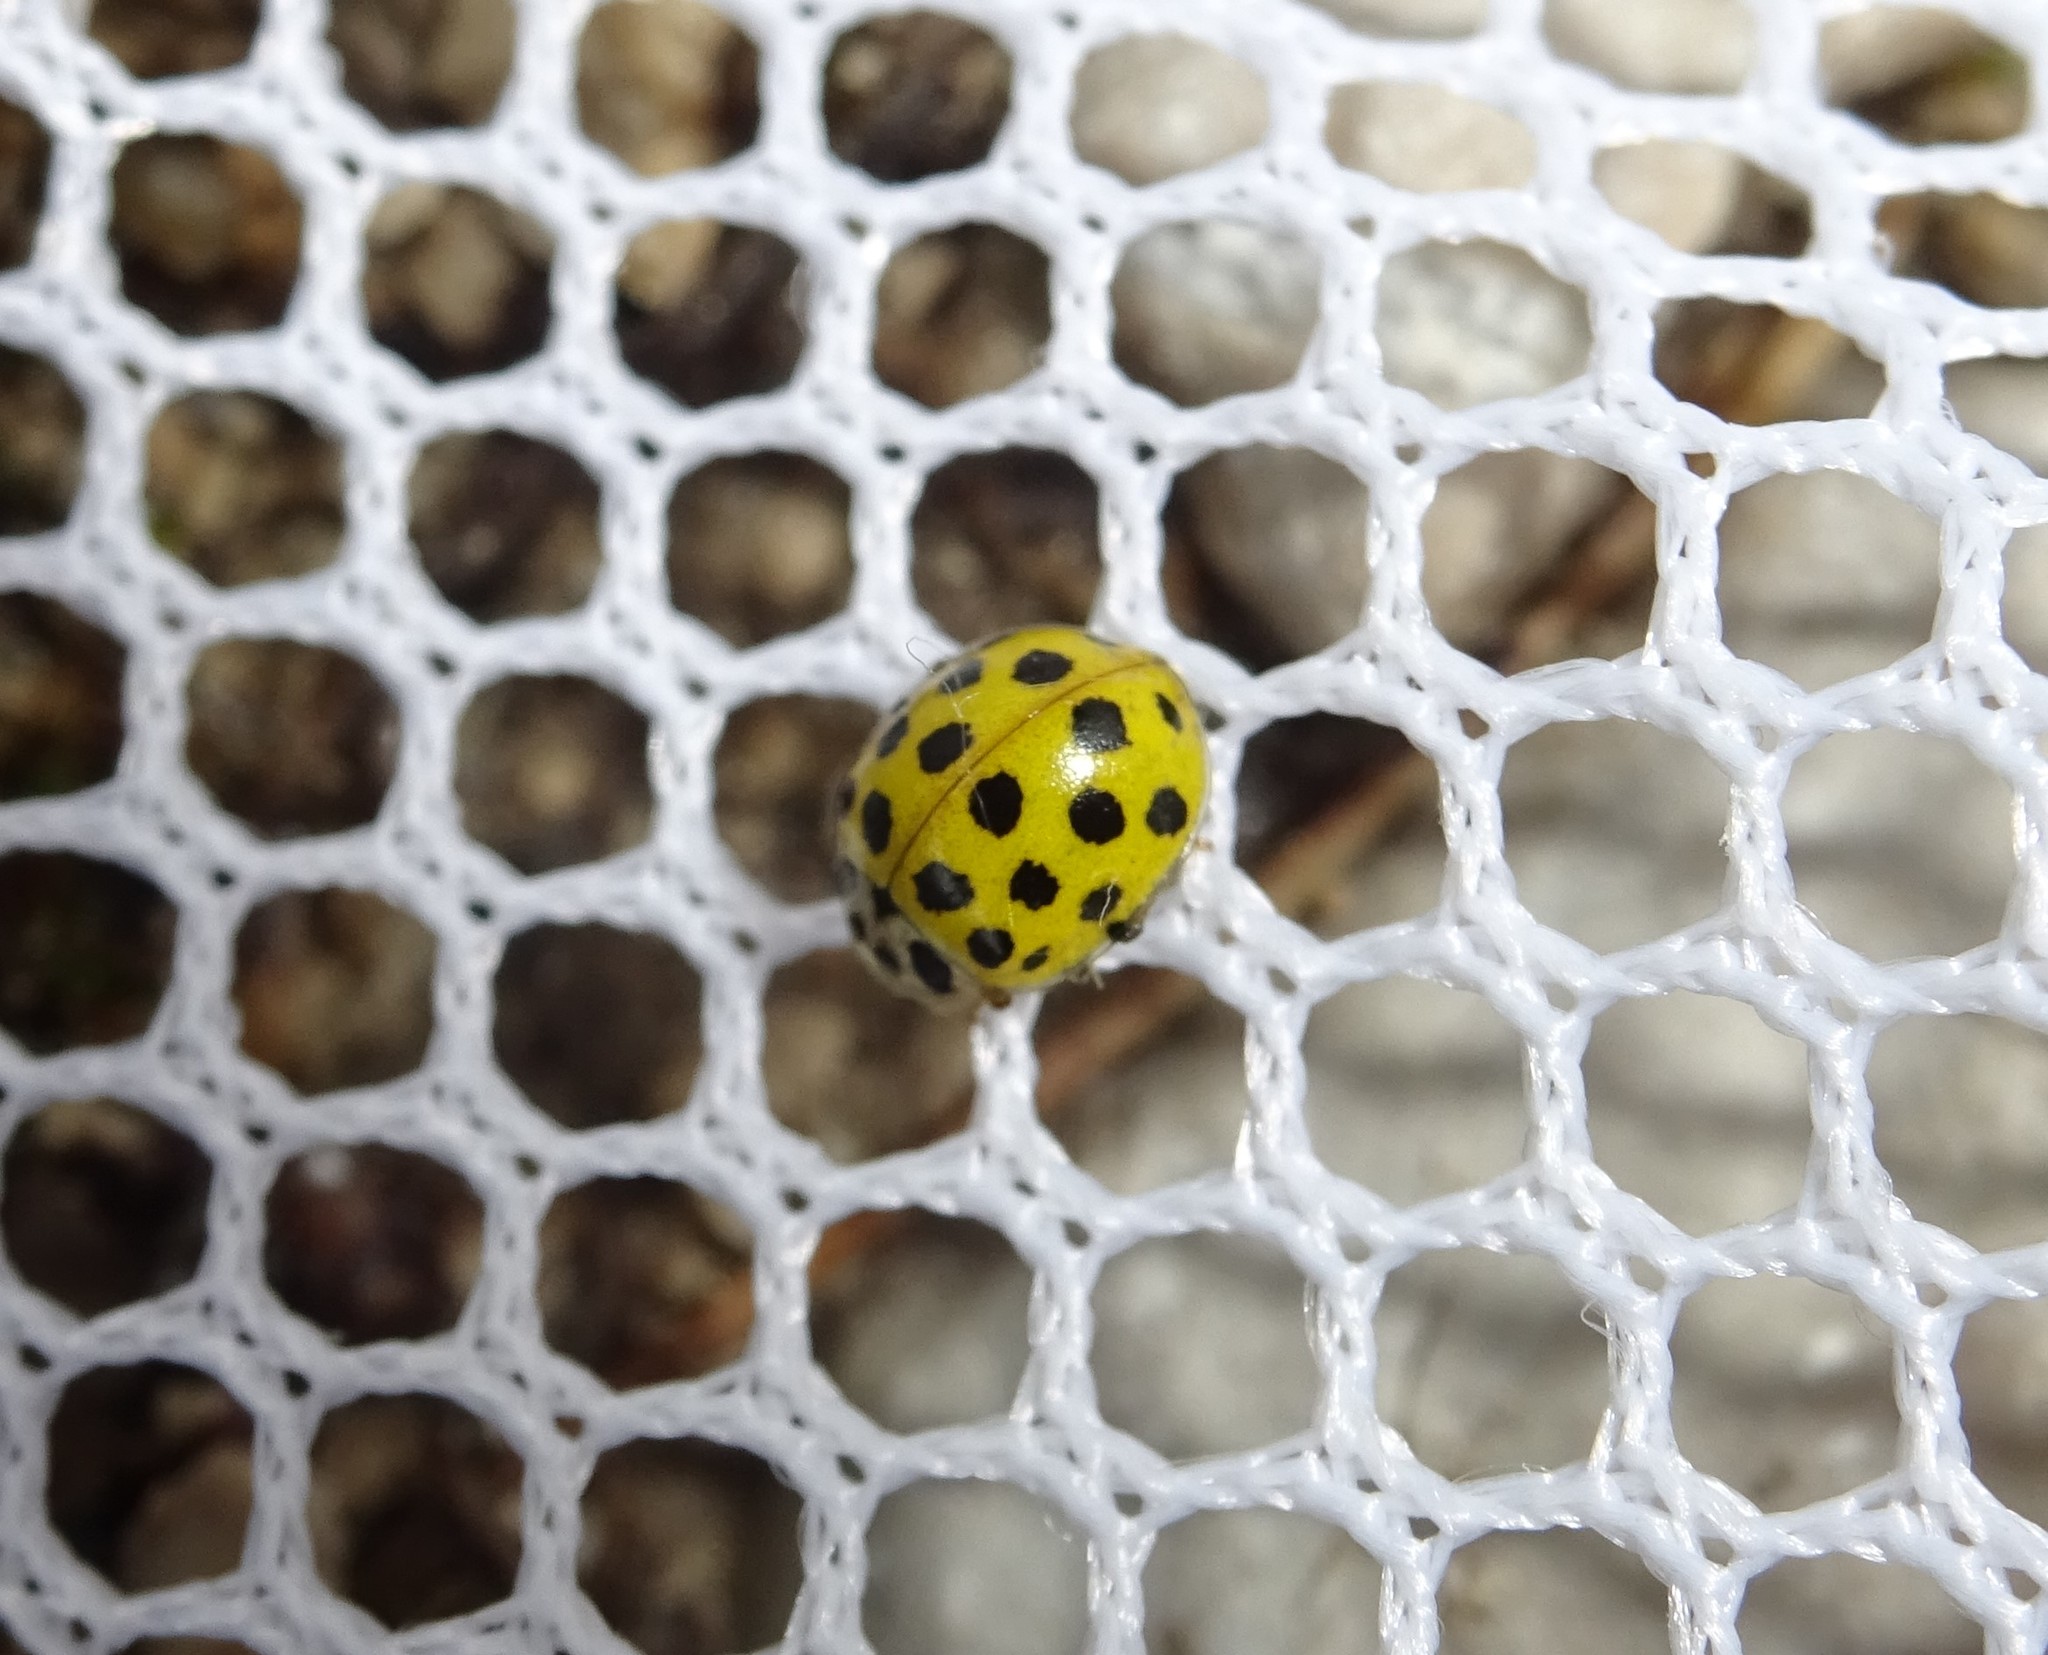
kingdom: Animalia
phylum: Arthropoda
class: Insecta
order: Coleoptera
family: Coccinellidae
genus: Psyllobora
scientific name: Psyllobora vigintiduopunctata
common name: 22-spot ladybird
